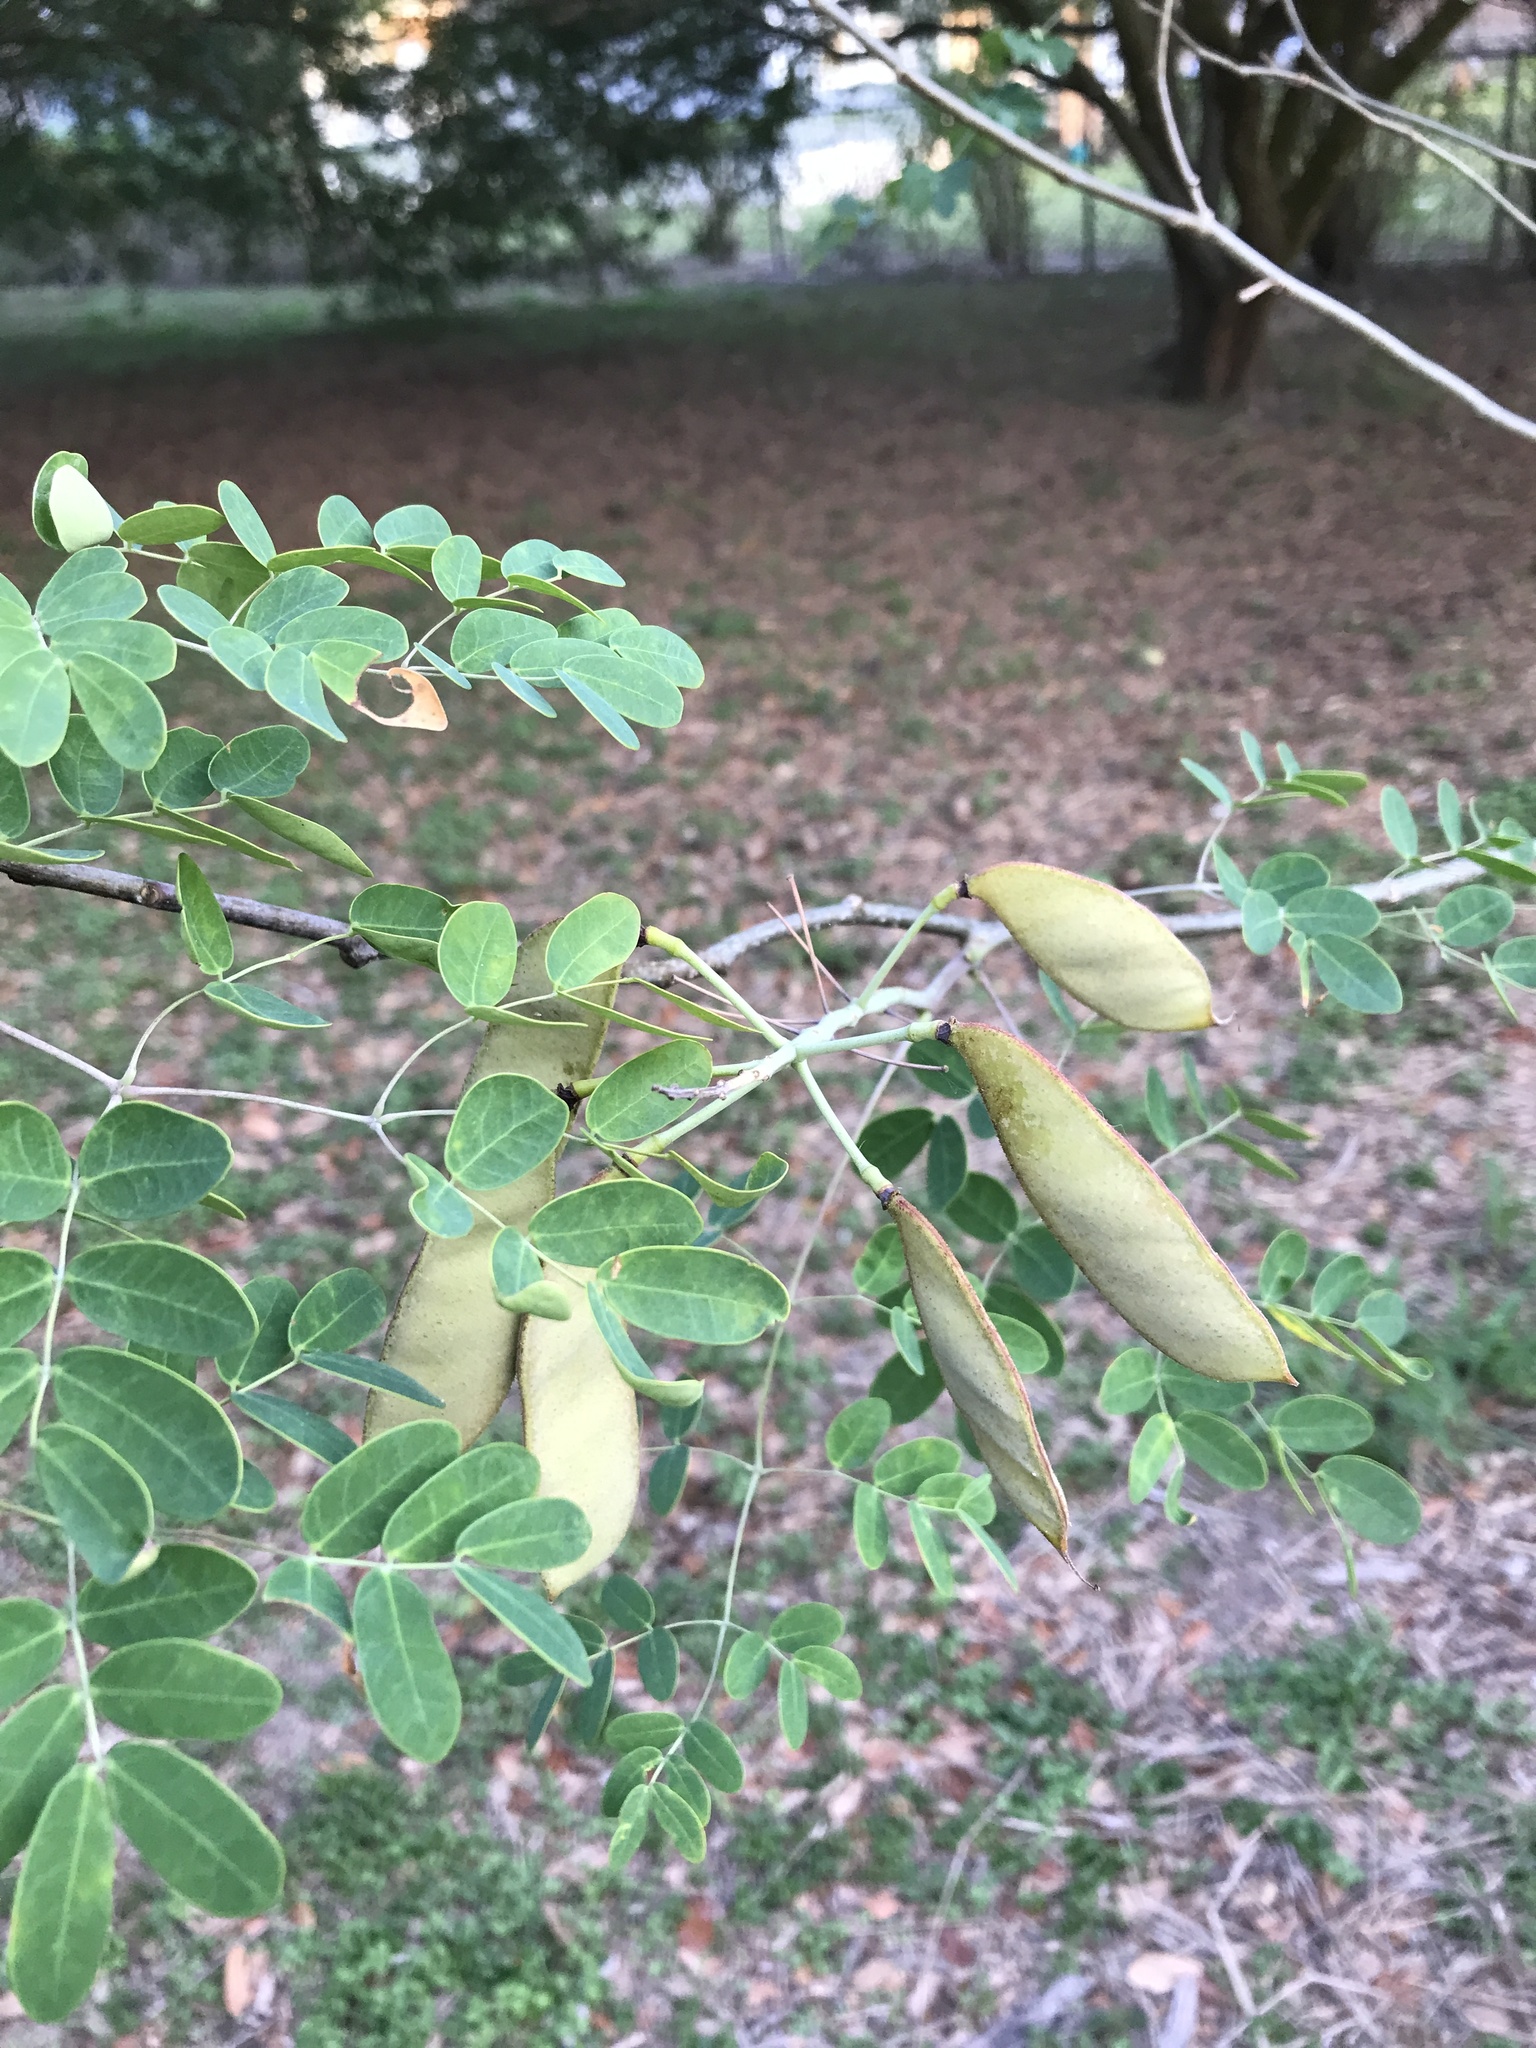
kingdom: Plantae
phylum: Tracheophyta
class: Magnoliopsida
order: Fabales
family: Fabaceae
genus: Erythrostemon
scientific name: Erythrostemon mexicanus
